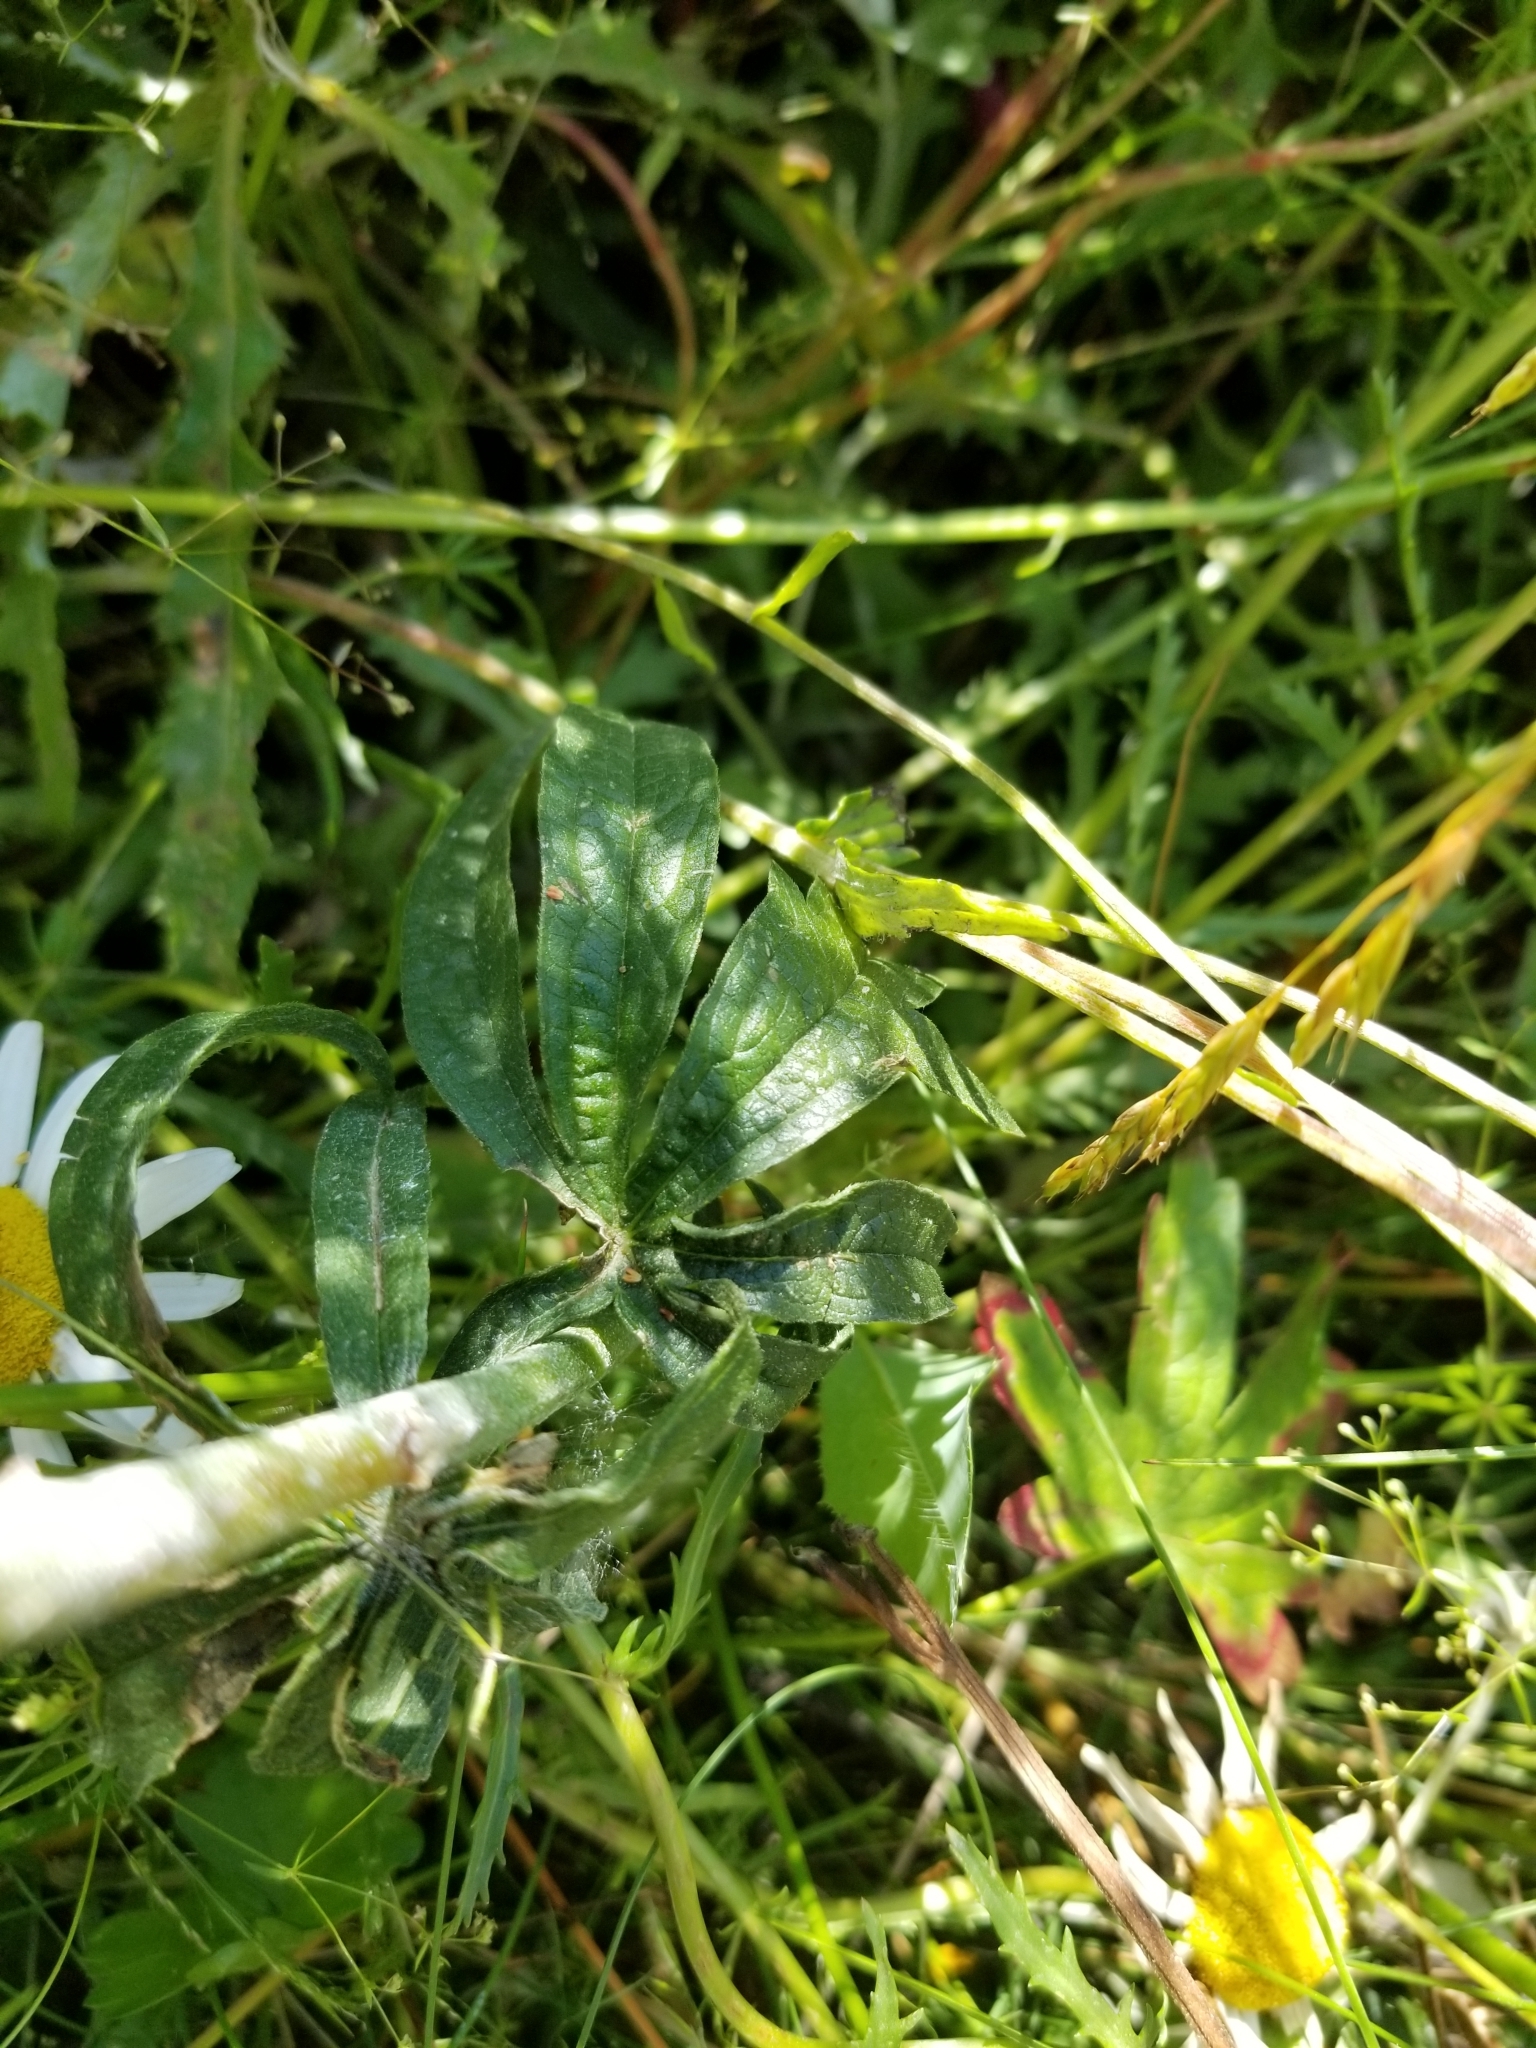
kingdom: Plantae
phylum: Tracheophyta
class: Magnoliopsida
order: Malvales
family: Malvaceae
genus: Sidalcea
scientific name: Sidalcea campestris
